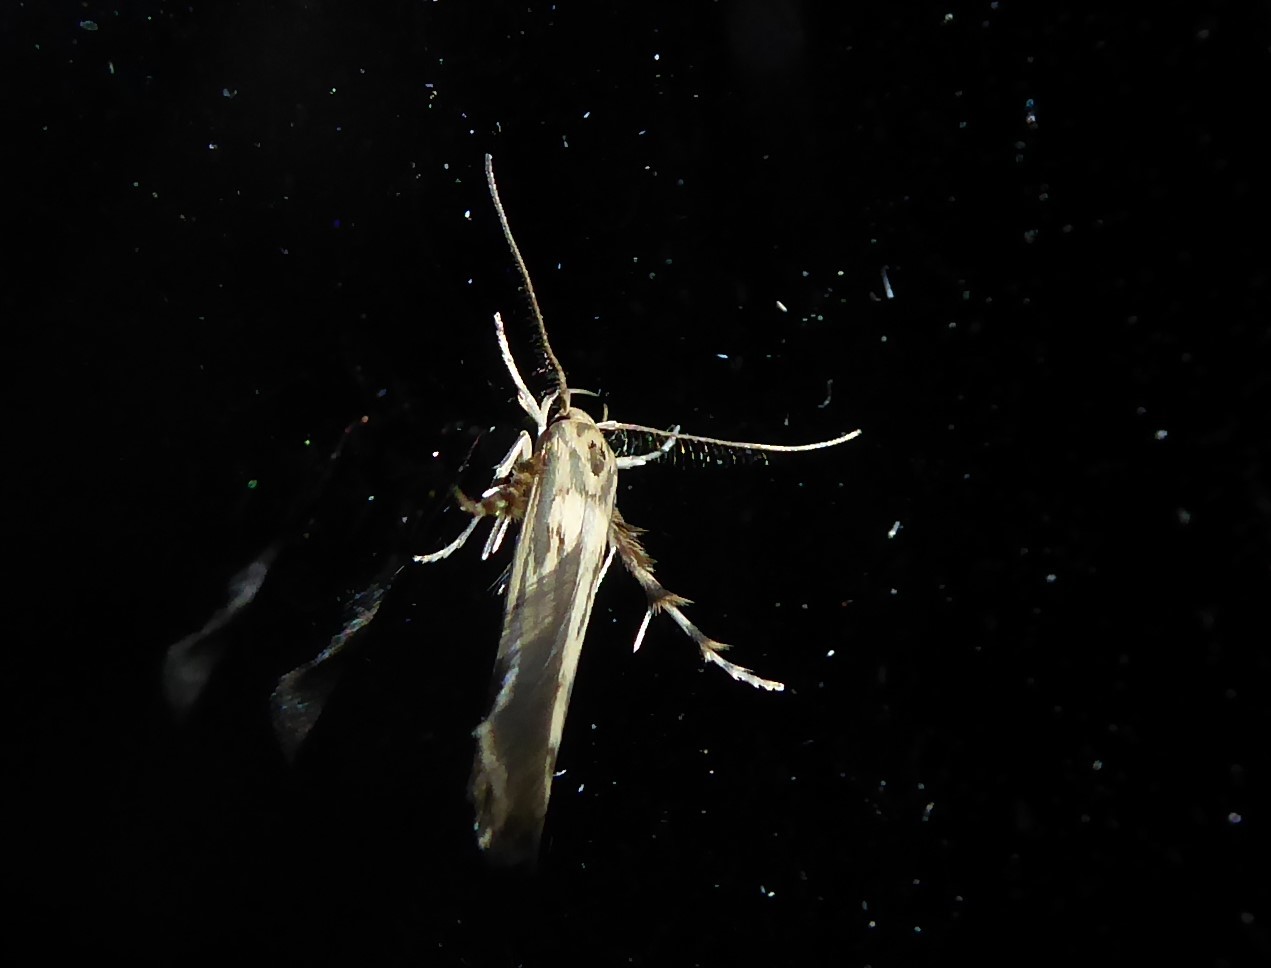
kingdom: Animalia
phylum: Arthropoda
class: Insecta
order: Lepidoptera
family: Stathmopodidae
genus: Stathmopoda
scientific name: Stathmopoda plumbiflua
